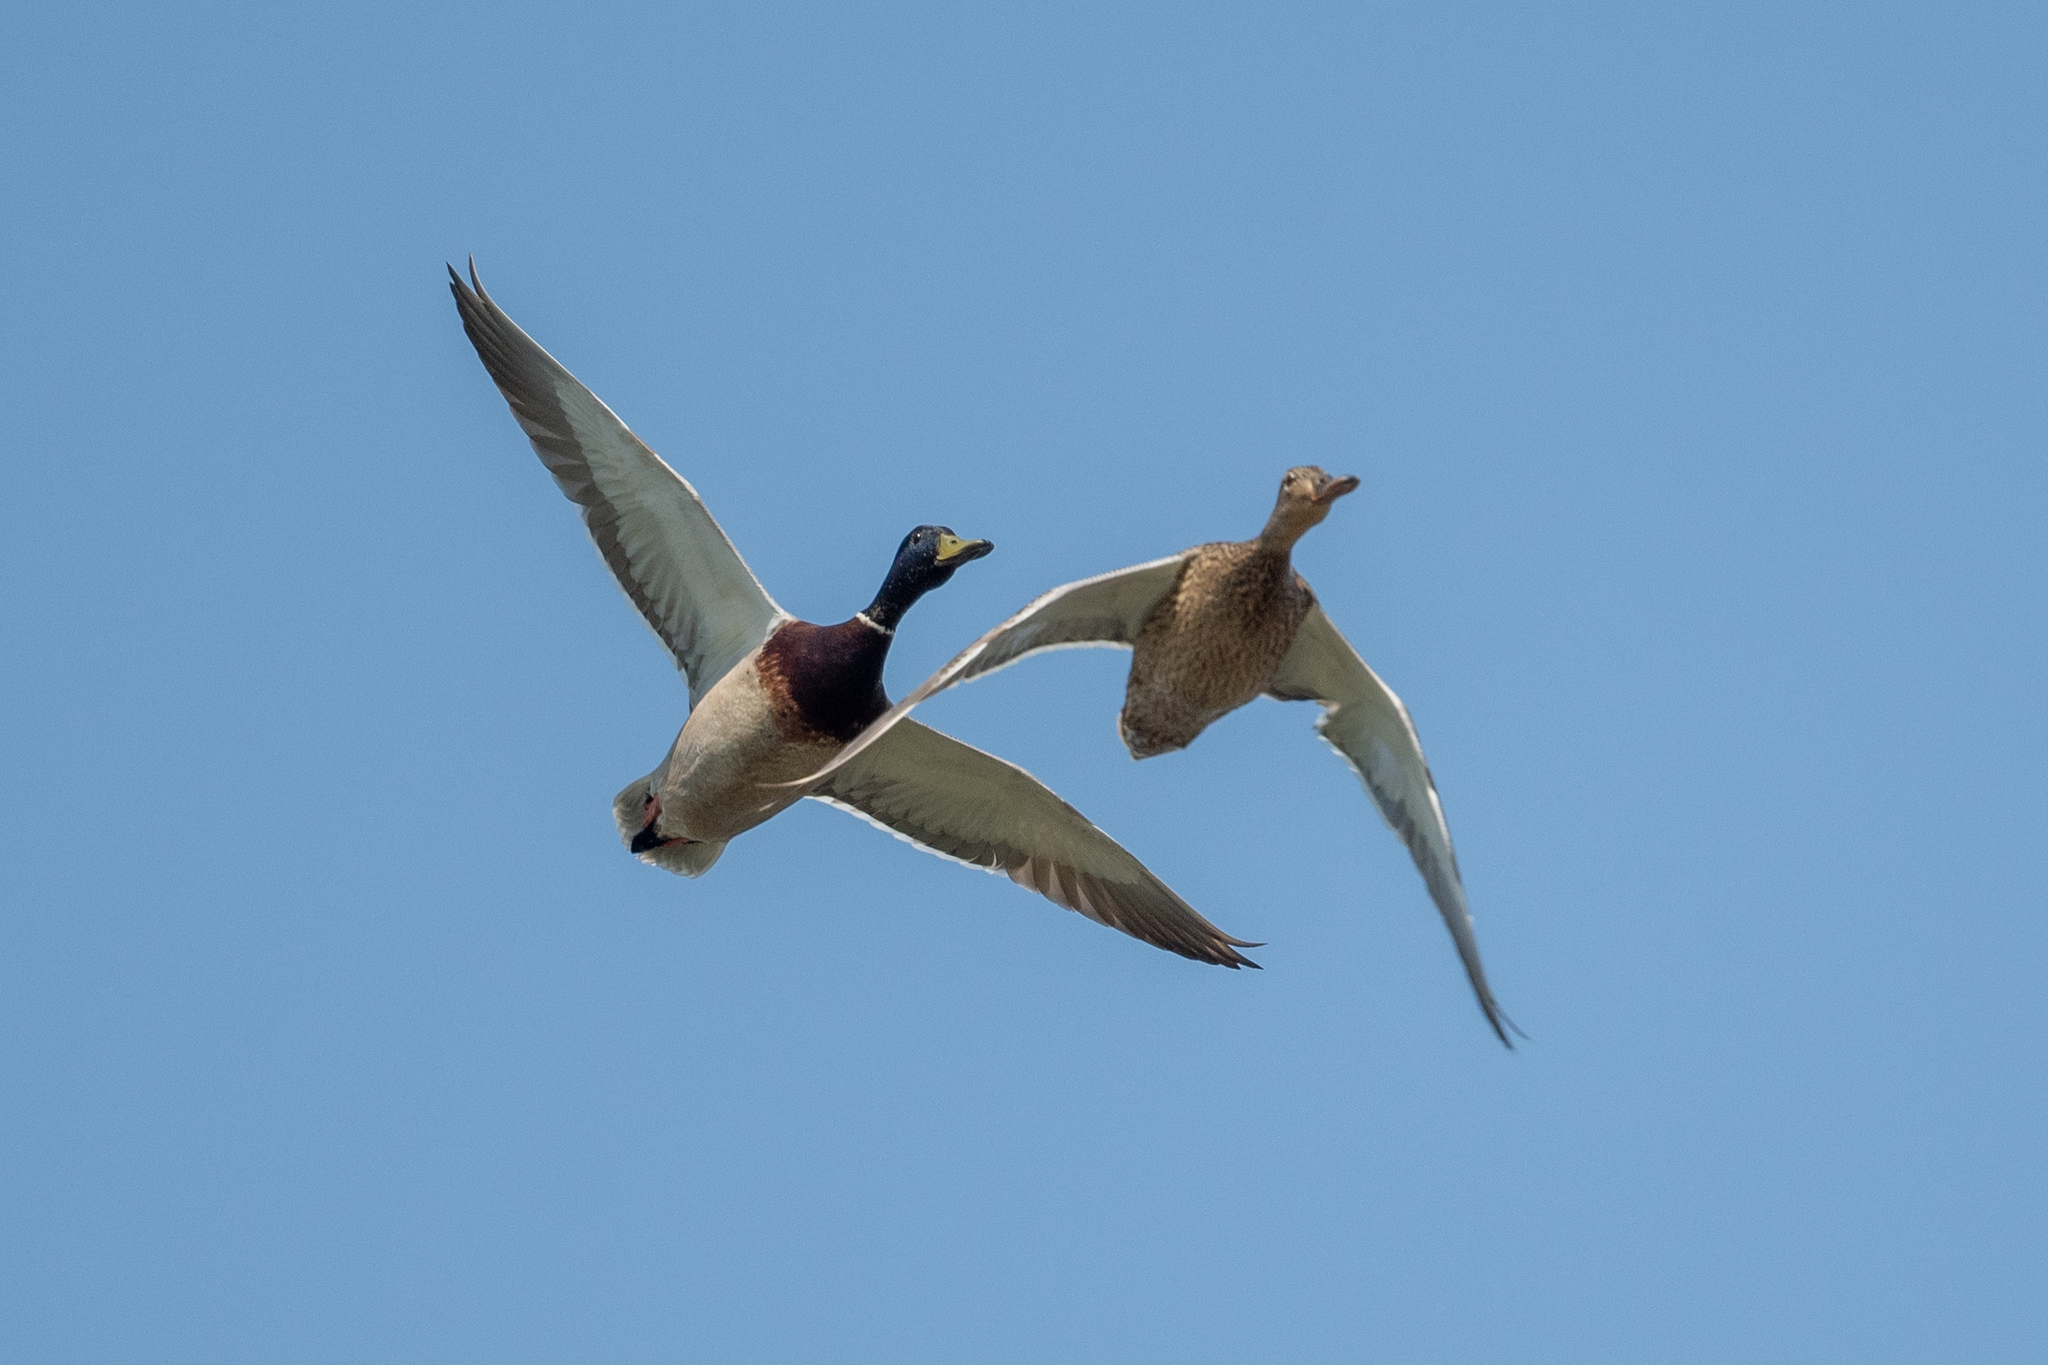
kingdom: Animalia
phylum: Chordata
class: Aves
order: Anseriformes
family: Anatidae
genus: Anas
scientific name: Anas platyrhynchos
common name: Mallard
